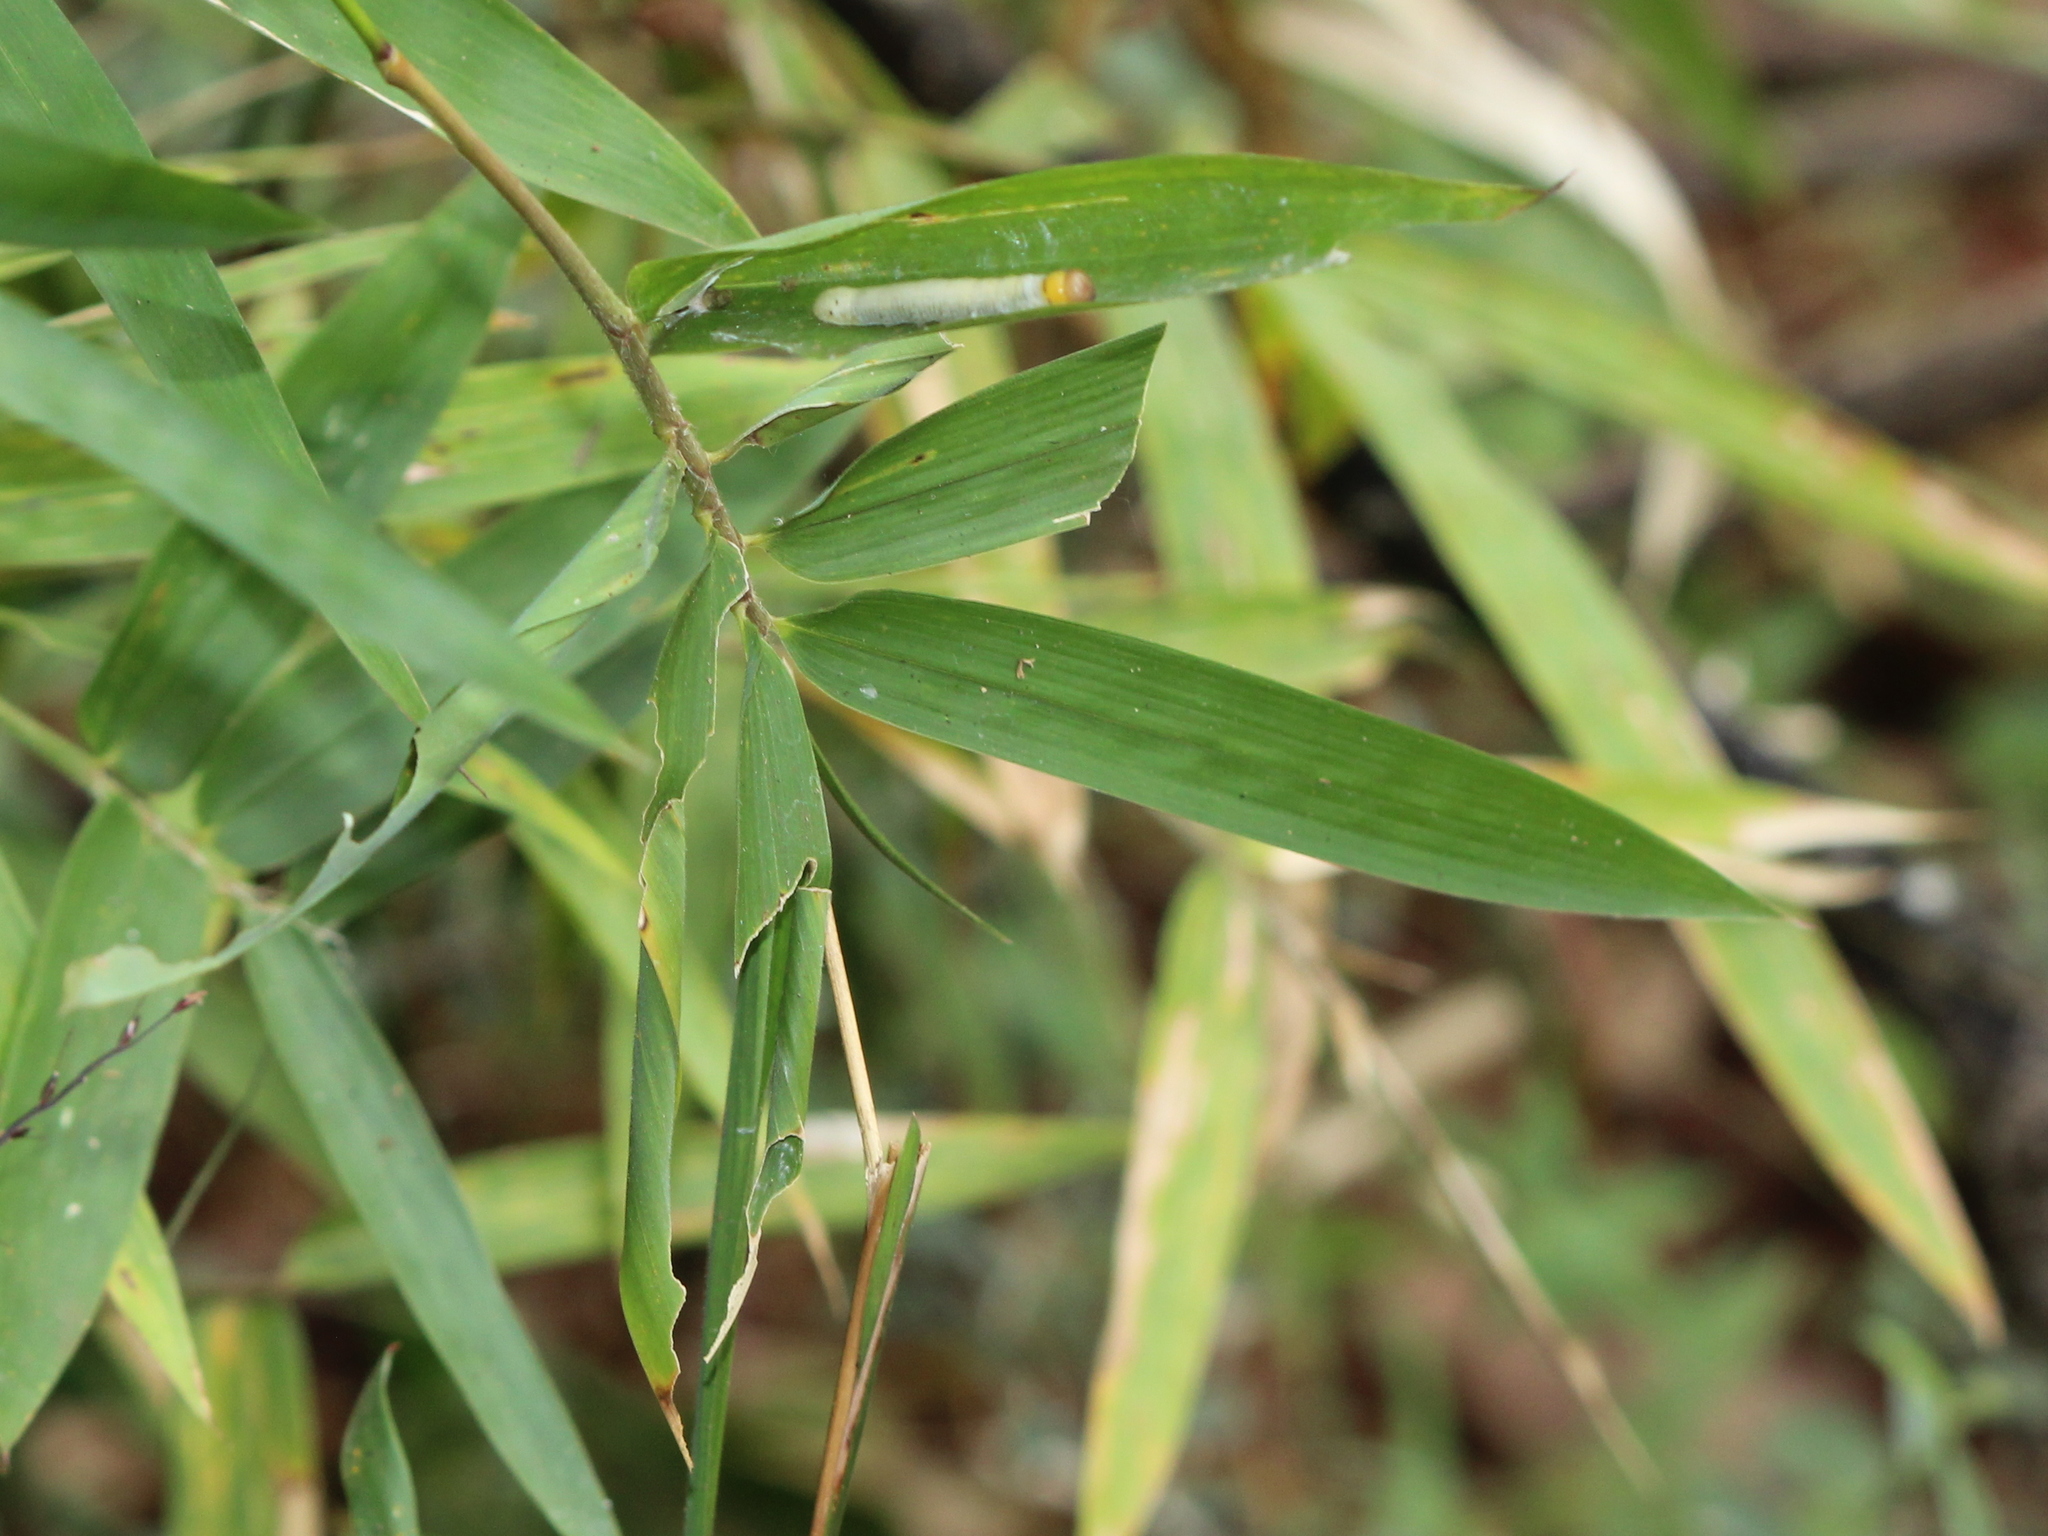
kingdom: Animalia
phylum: Arthropoda
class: Insecta
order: Lepidoptera
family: Hesperiidae
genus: Matapa
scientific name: Matapa aria
